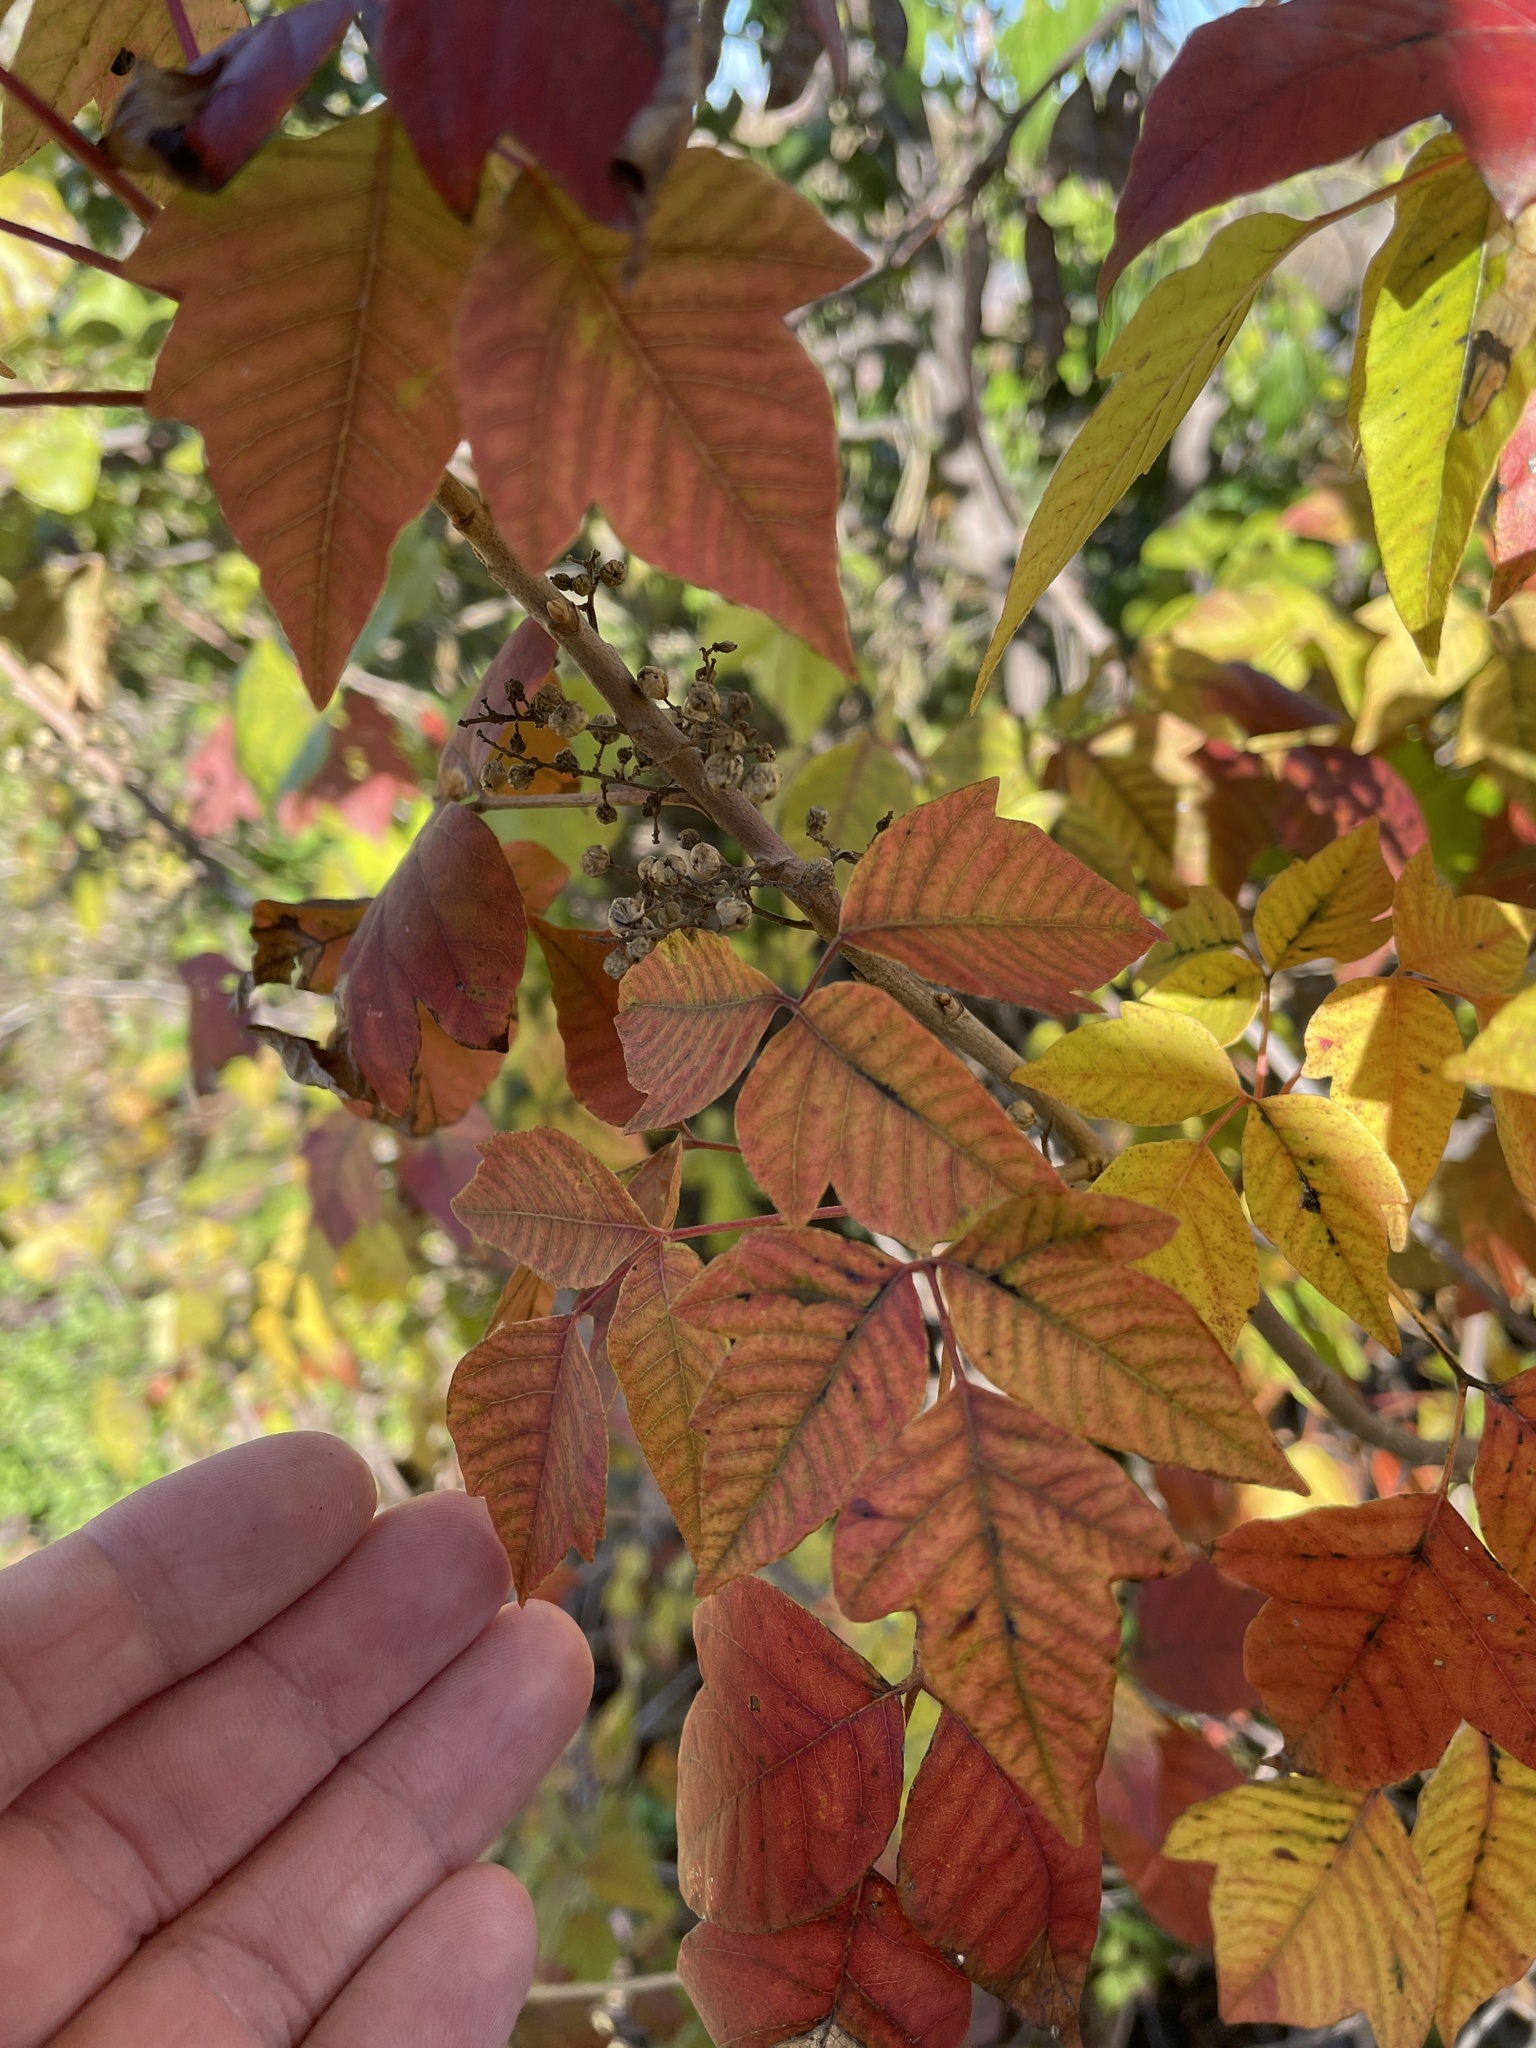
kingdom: Plantae
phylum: Tracheophyta
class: Magnoliopsida
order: Sapindales
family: Anacardiaceae
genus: Toxicodendron
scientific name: Toxicodendron radicans
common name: Poison ivy
